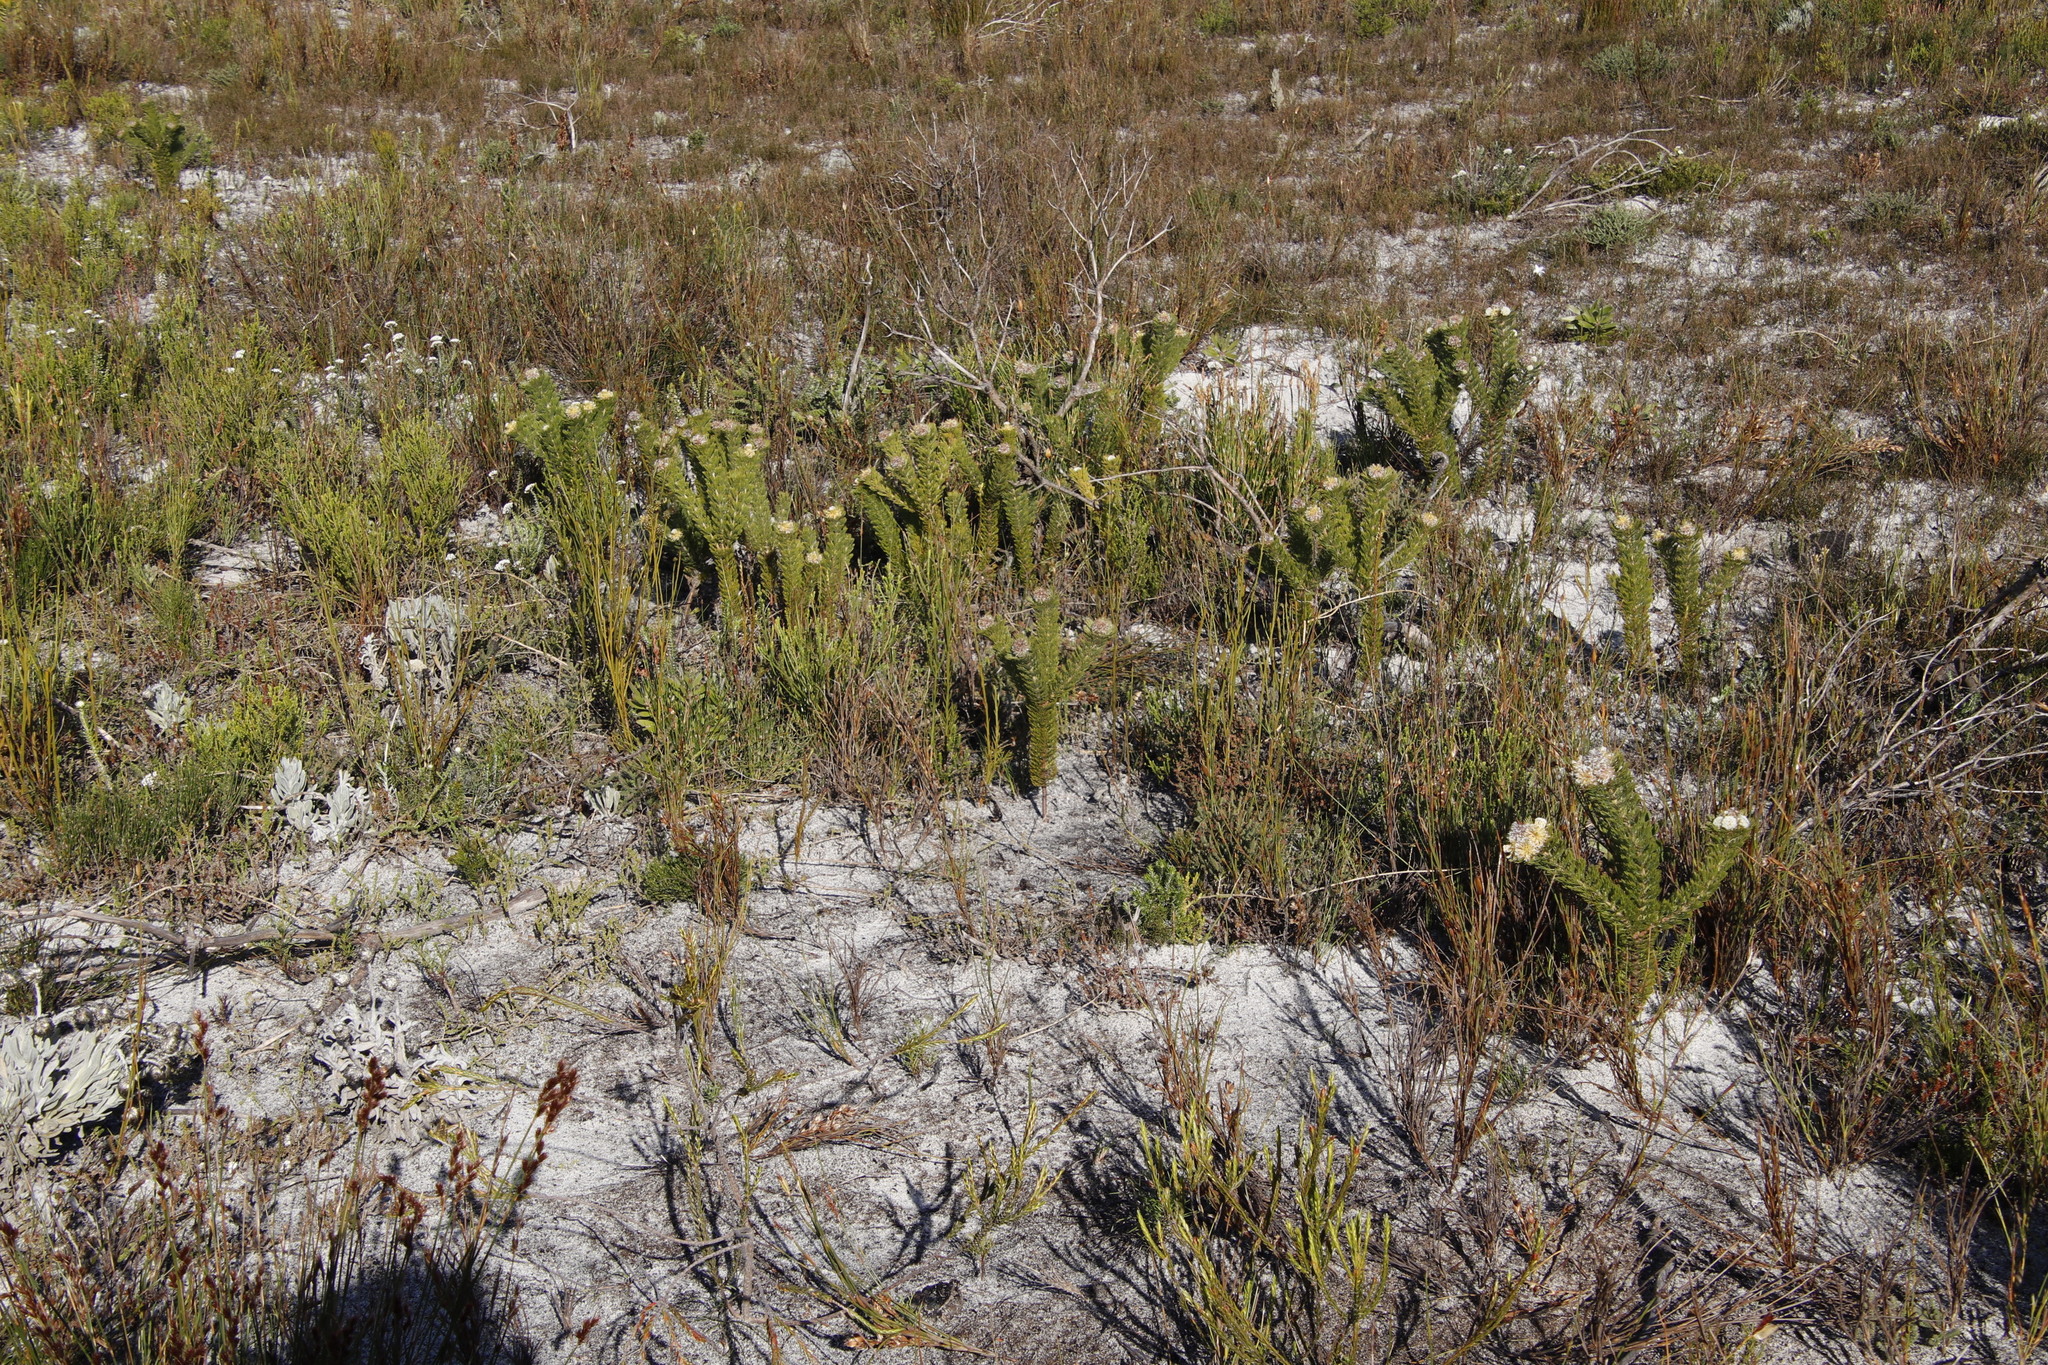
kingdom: Plantae
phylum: Tracheophyta
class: Magnoliopsida
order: Proteales
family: Proteaceae
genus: Serruria
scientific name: Serruria villosa
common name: Golden spiderhead
